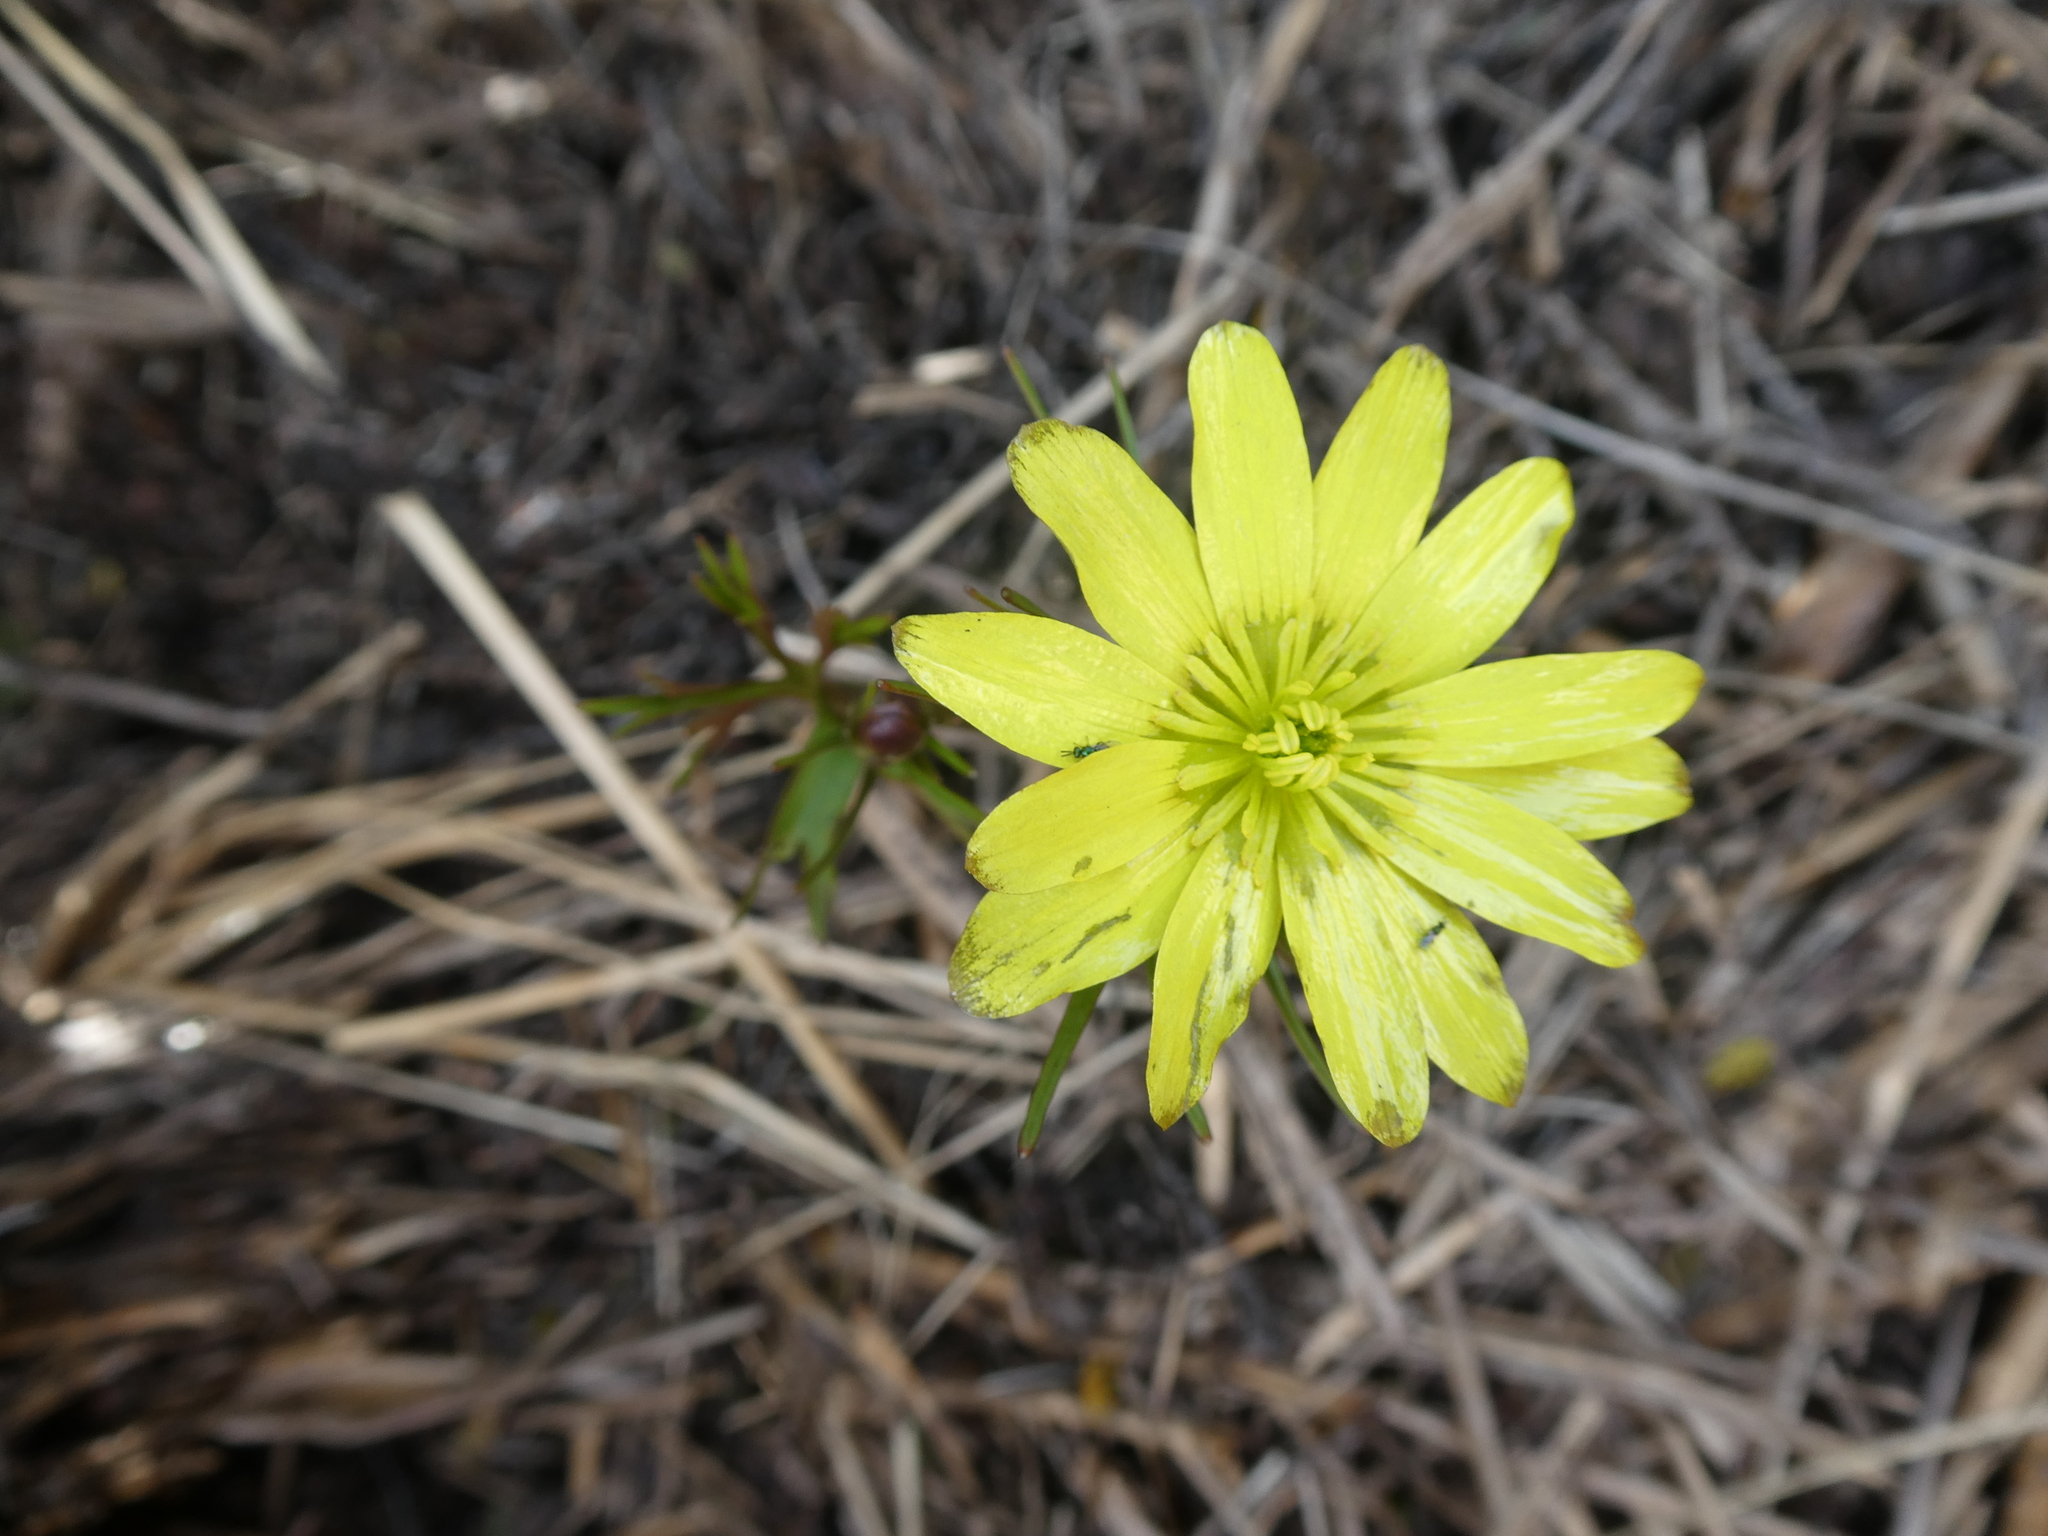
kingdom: Plantae
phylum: Tracheophyta
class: Magnoliopsida
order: Ranunculales
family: Ranunculaceae
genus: Ranunculus
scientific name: Ranunculus verticillatus
